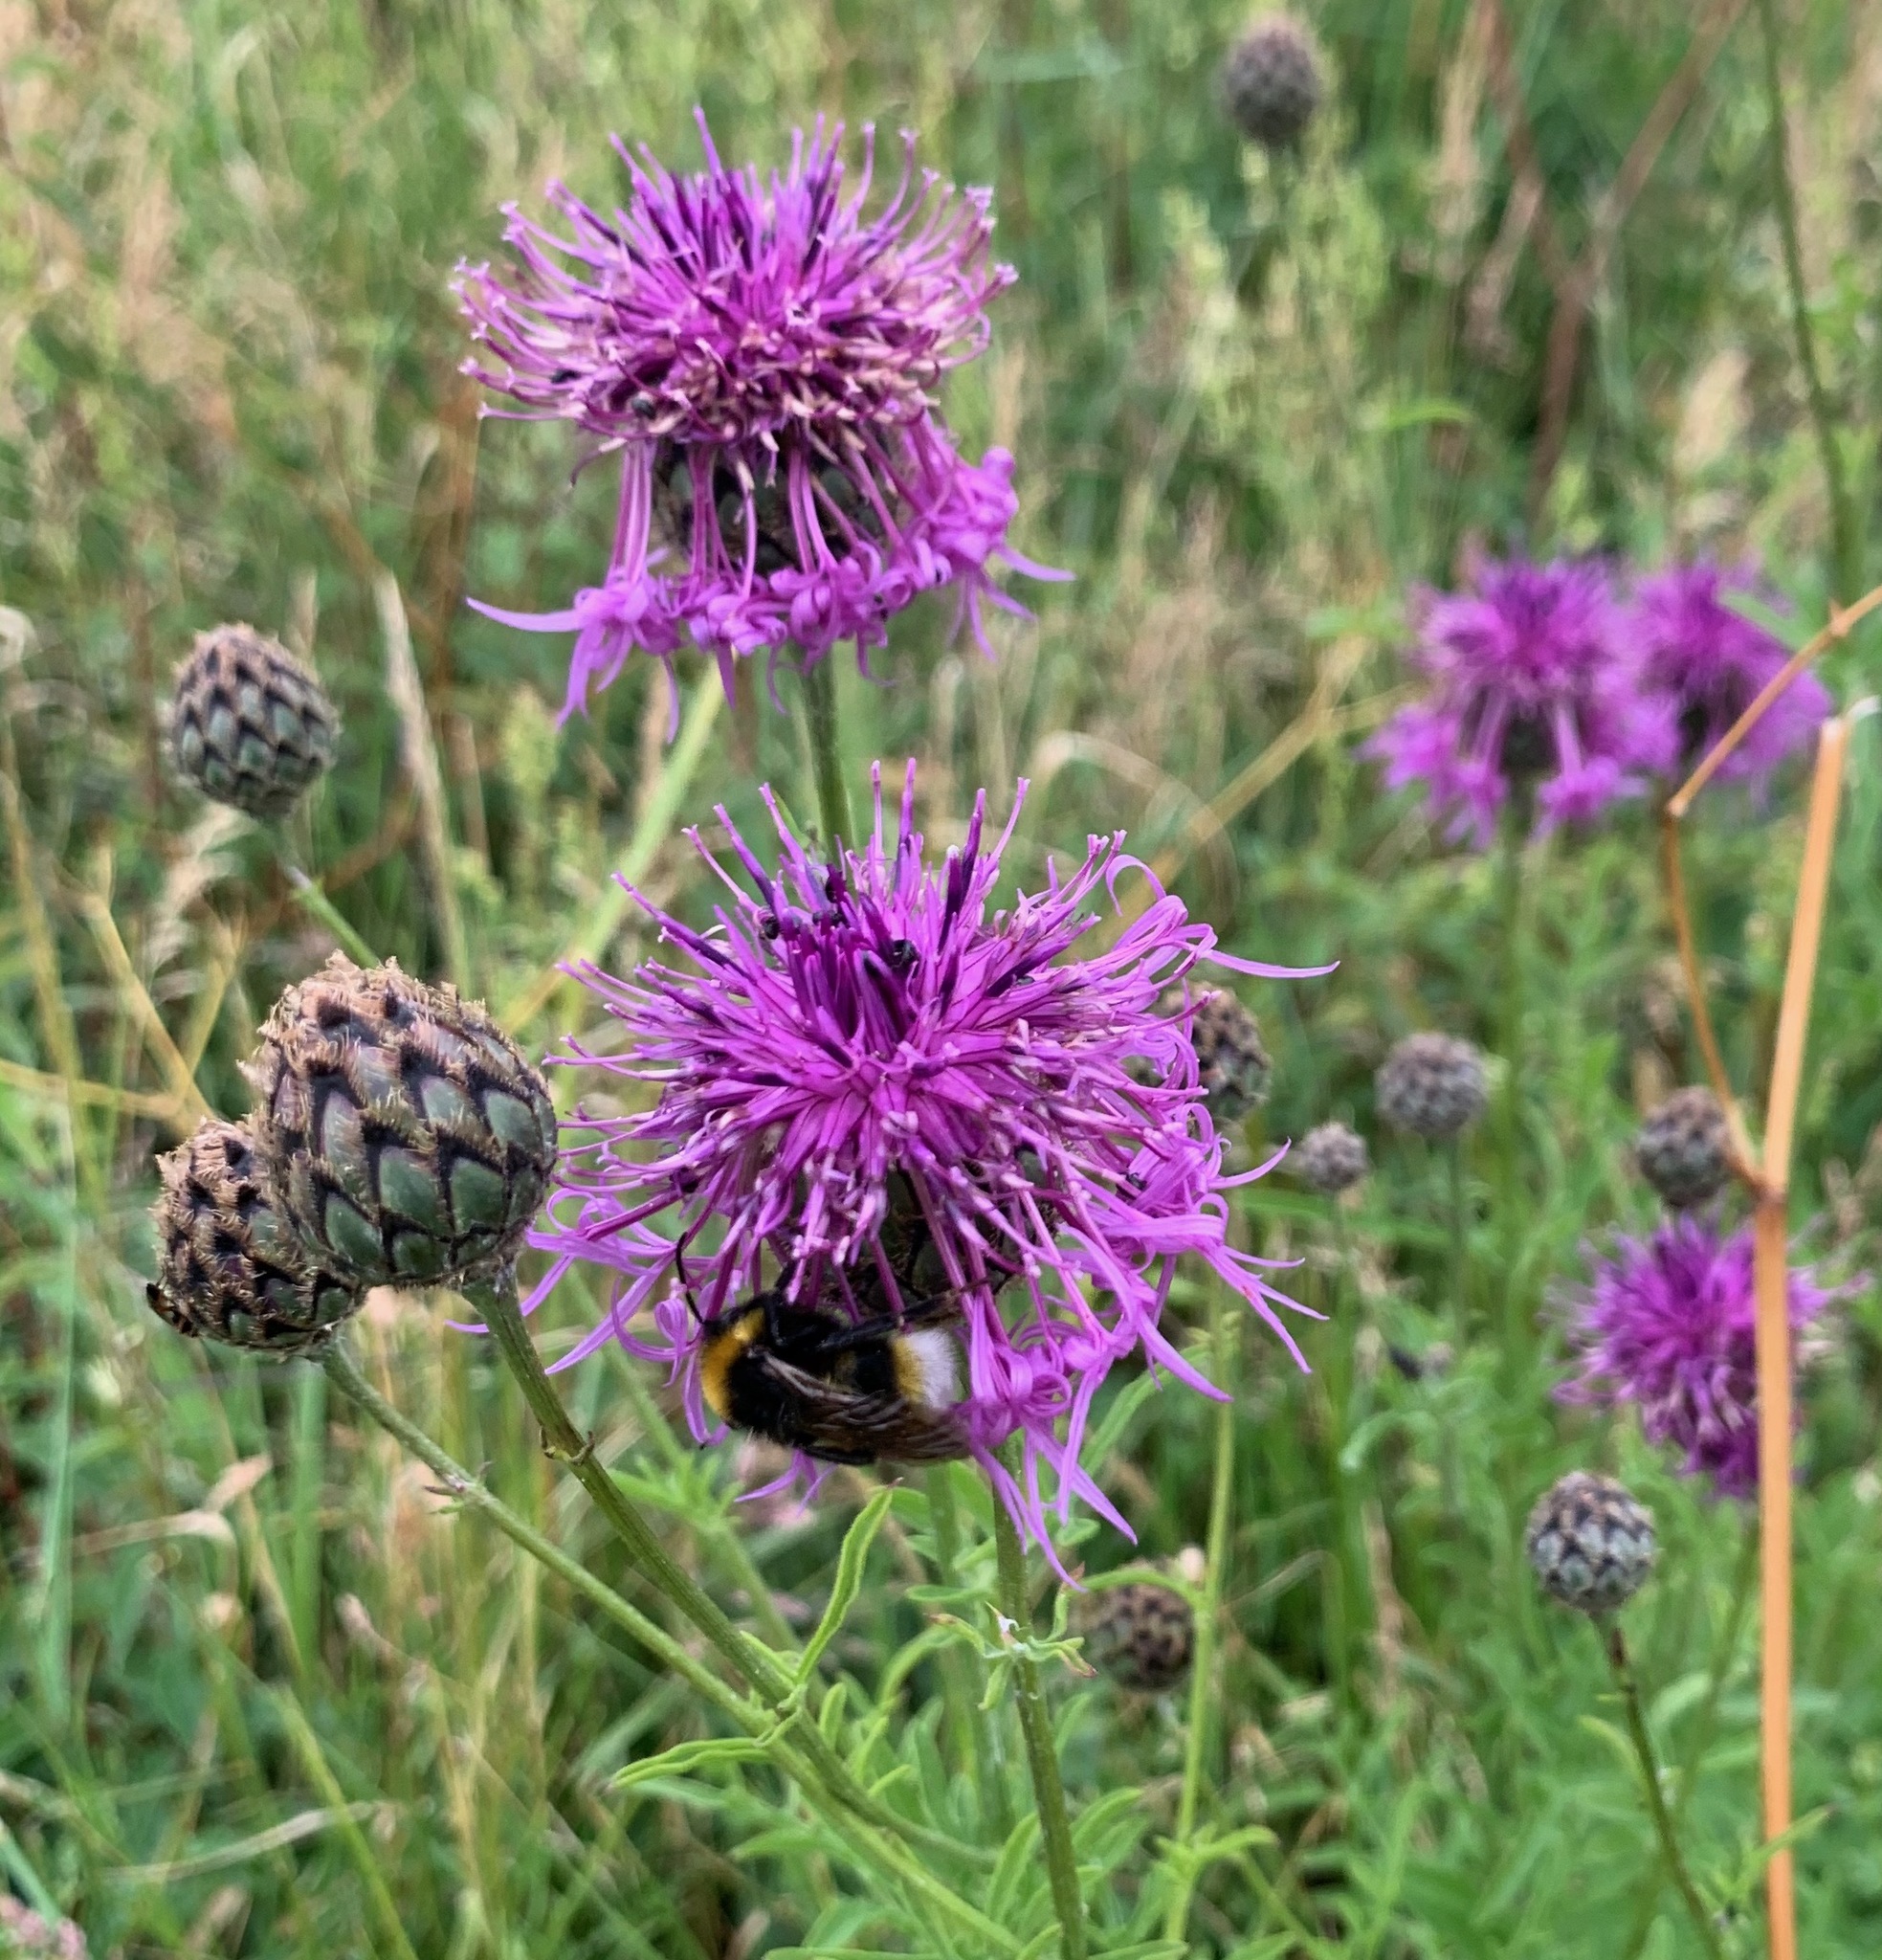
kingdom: Plantae
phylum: Tracheophyta
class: Magnoliopsida
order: Asterales
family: Asteraceae
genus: Centaurea
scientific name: Centaurea scabiosa
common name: Greater knapweed
